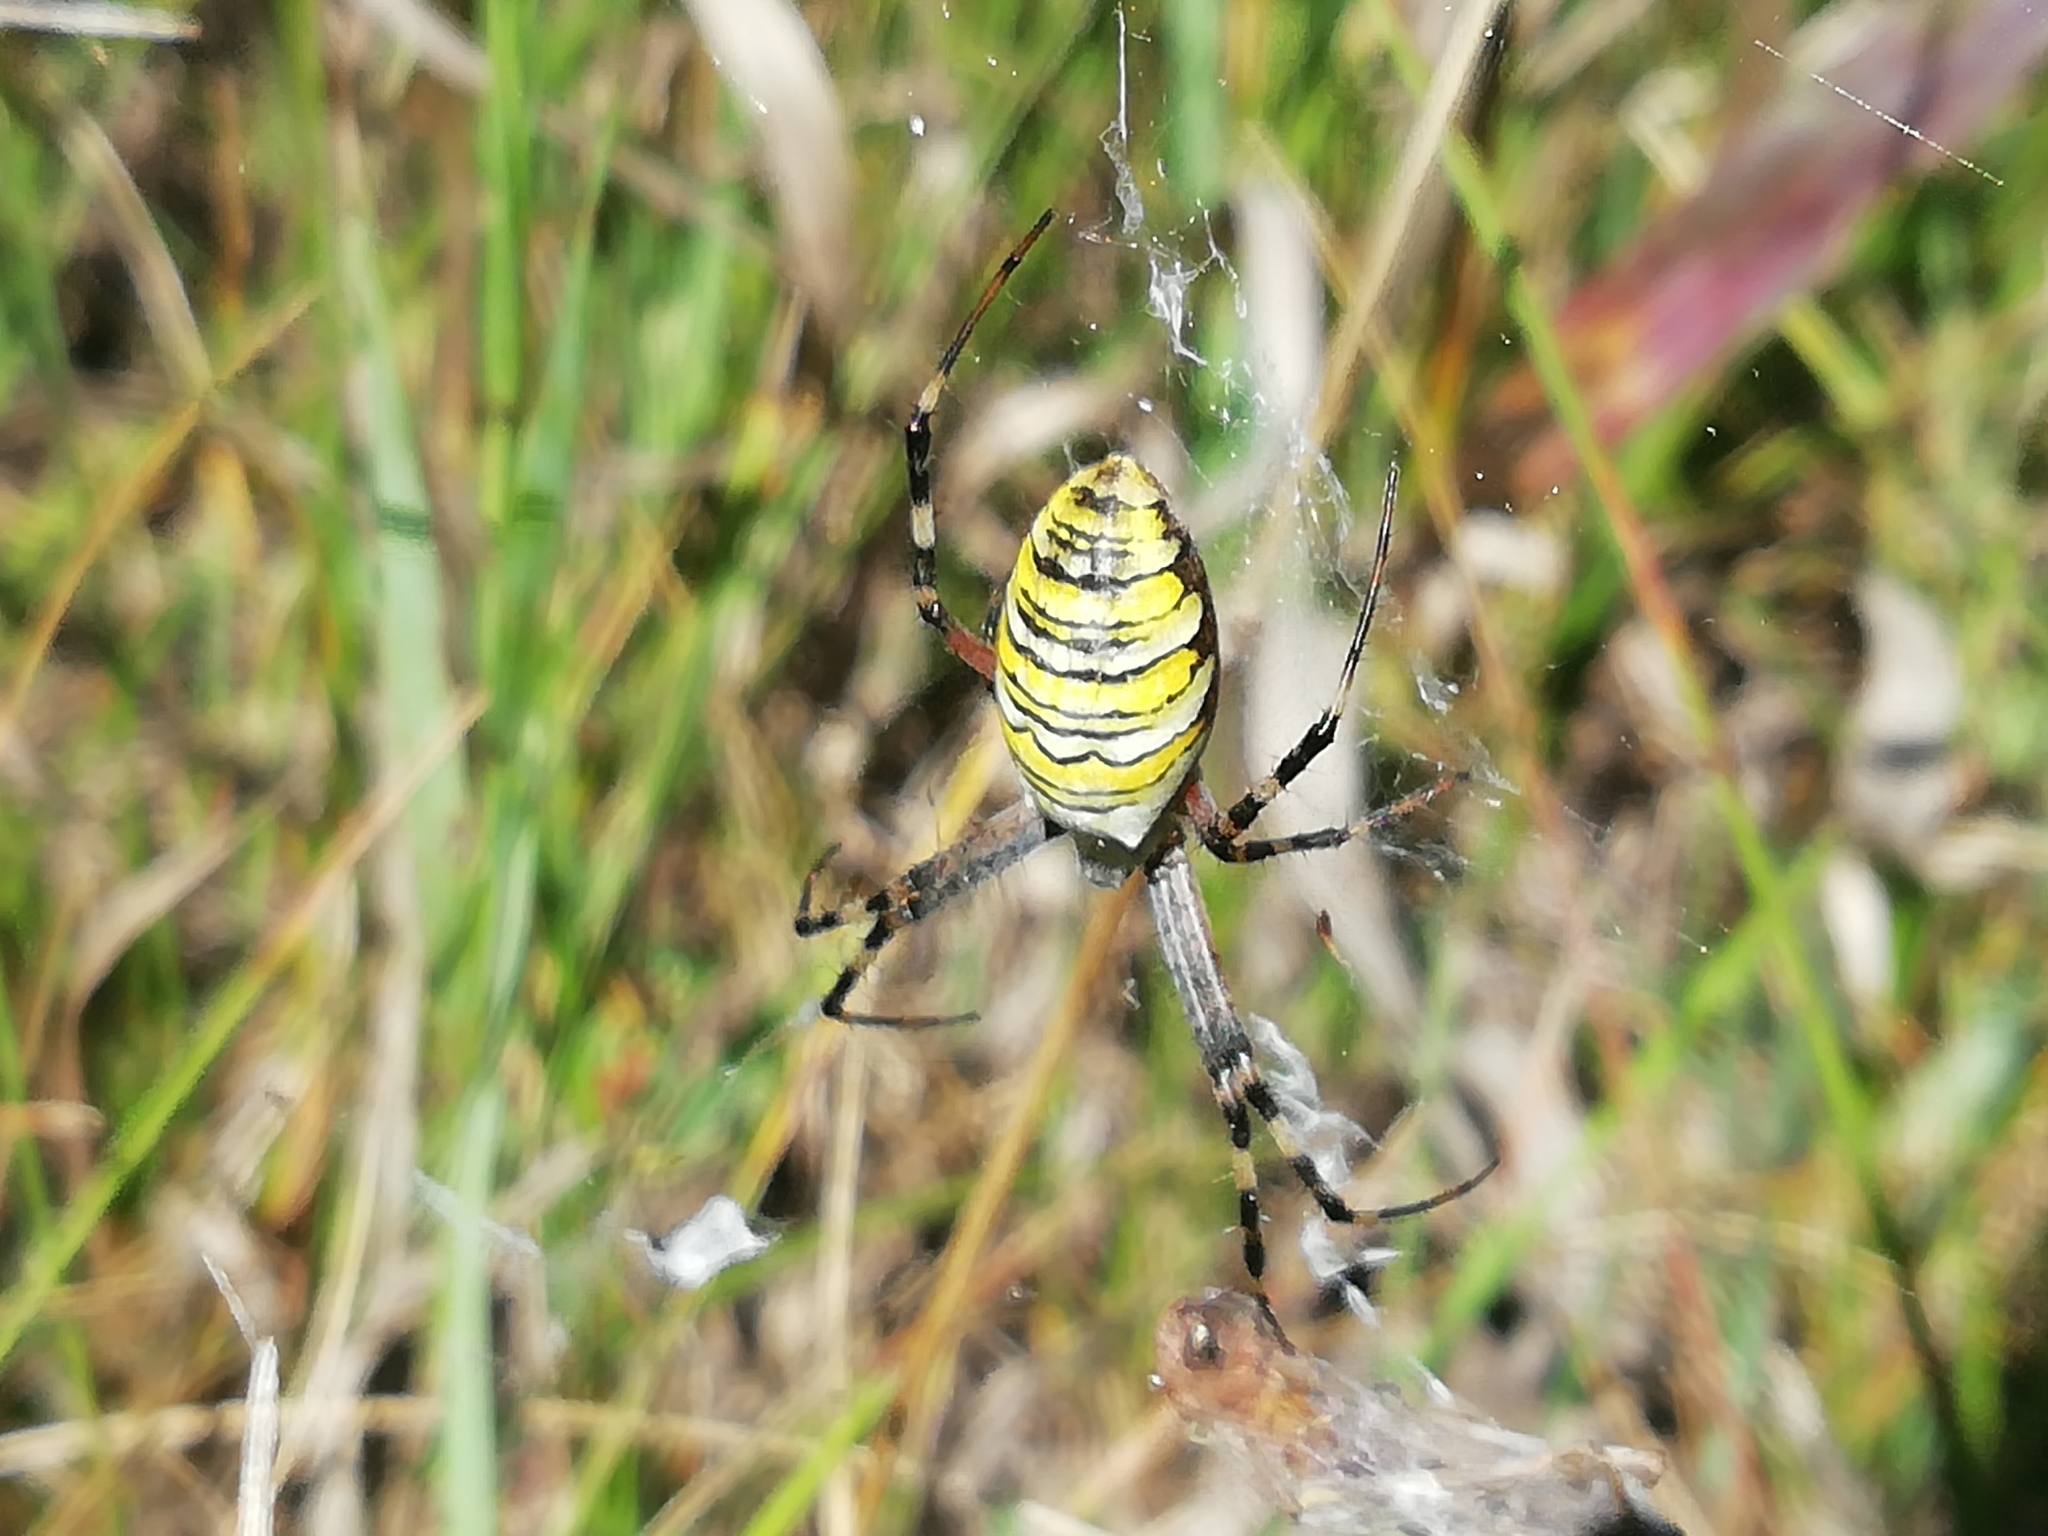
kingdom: Animalia
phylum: Arthropoda
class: Arachnida
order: Araneae
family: Araneidae
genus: Argiope
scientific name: Argiope bruennichi
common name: Wasp spider
